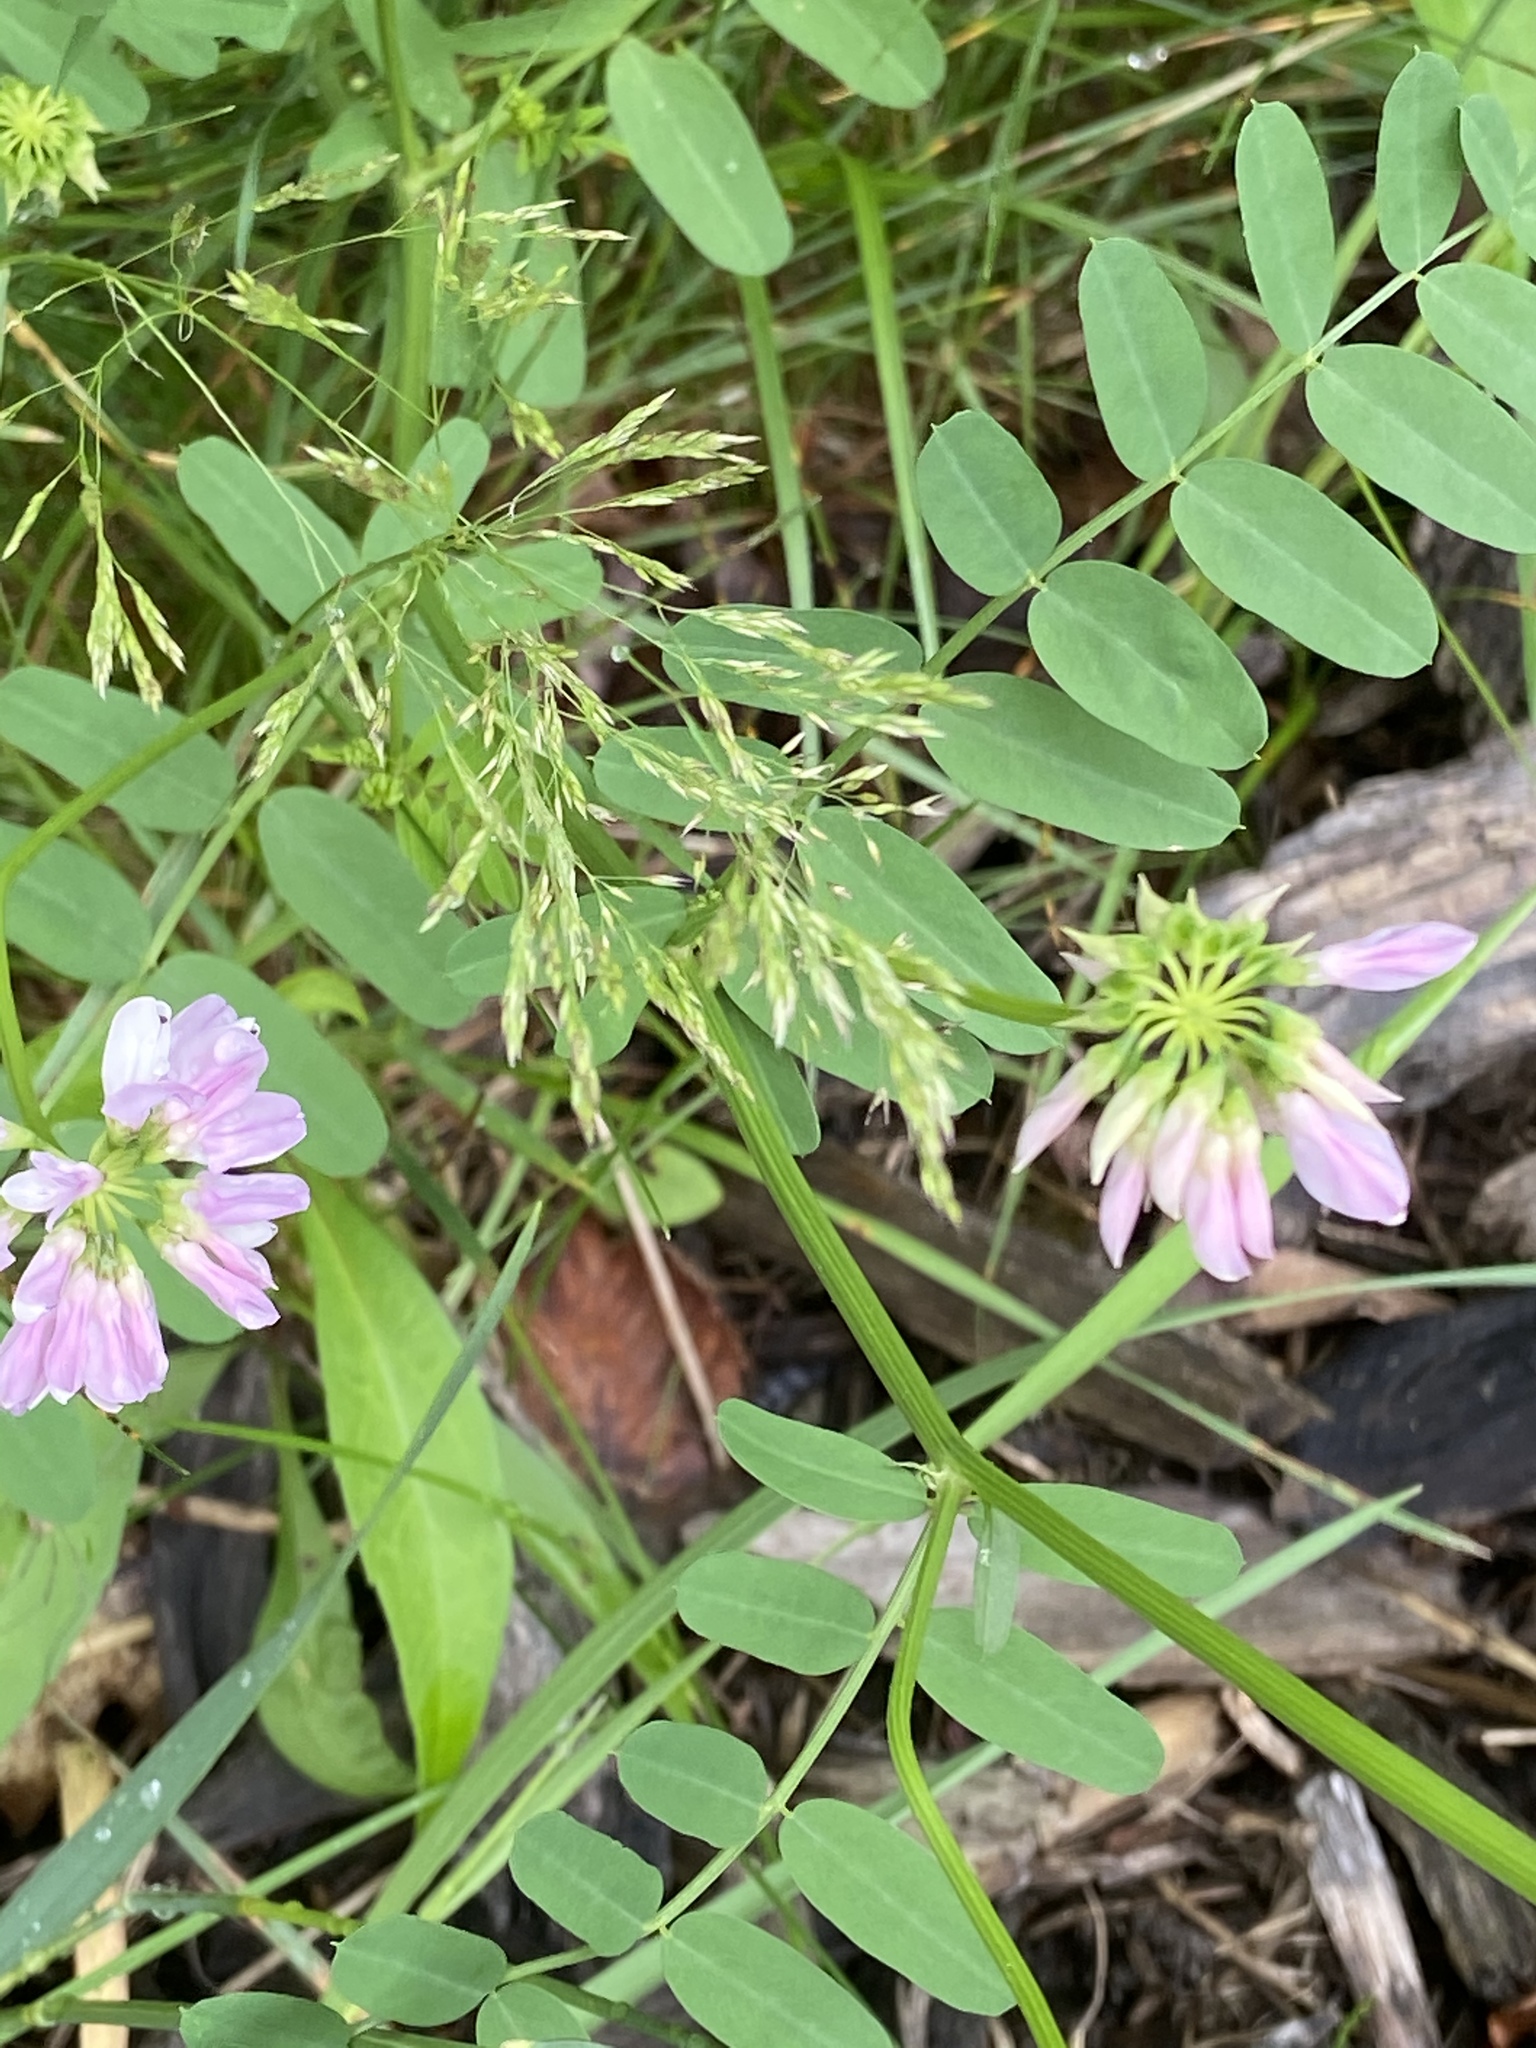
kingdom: Plantae
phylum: Tracheophyta
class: Magnoliopsida
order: Fabales
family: Fabaceae
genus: Coronilla
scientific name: Coronilla varia
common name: Crownvetch
